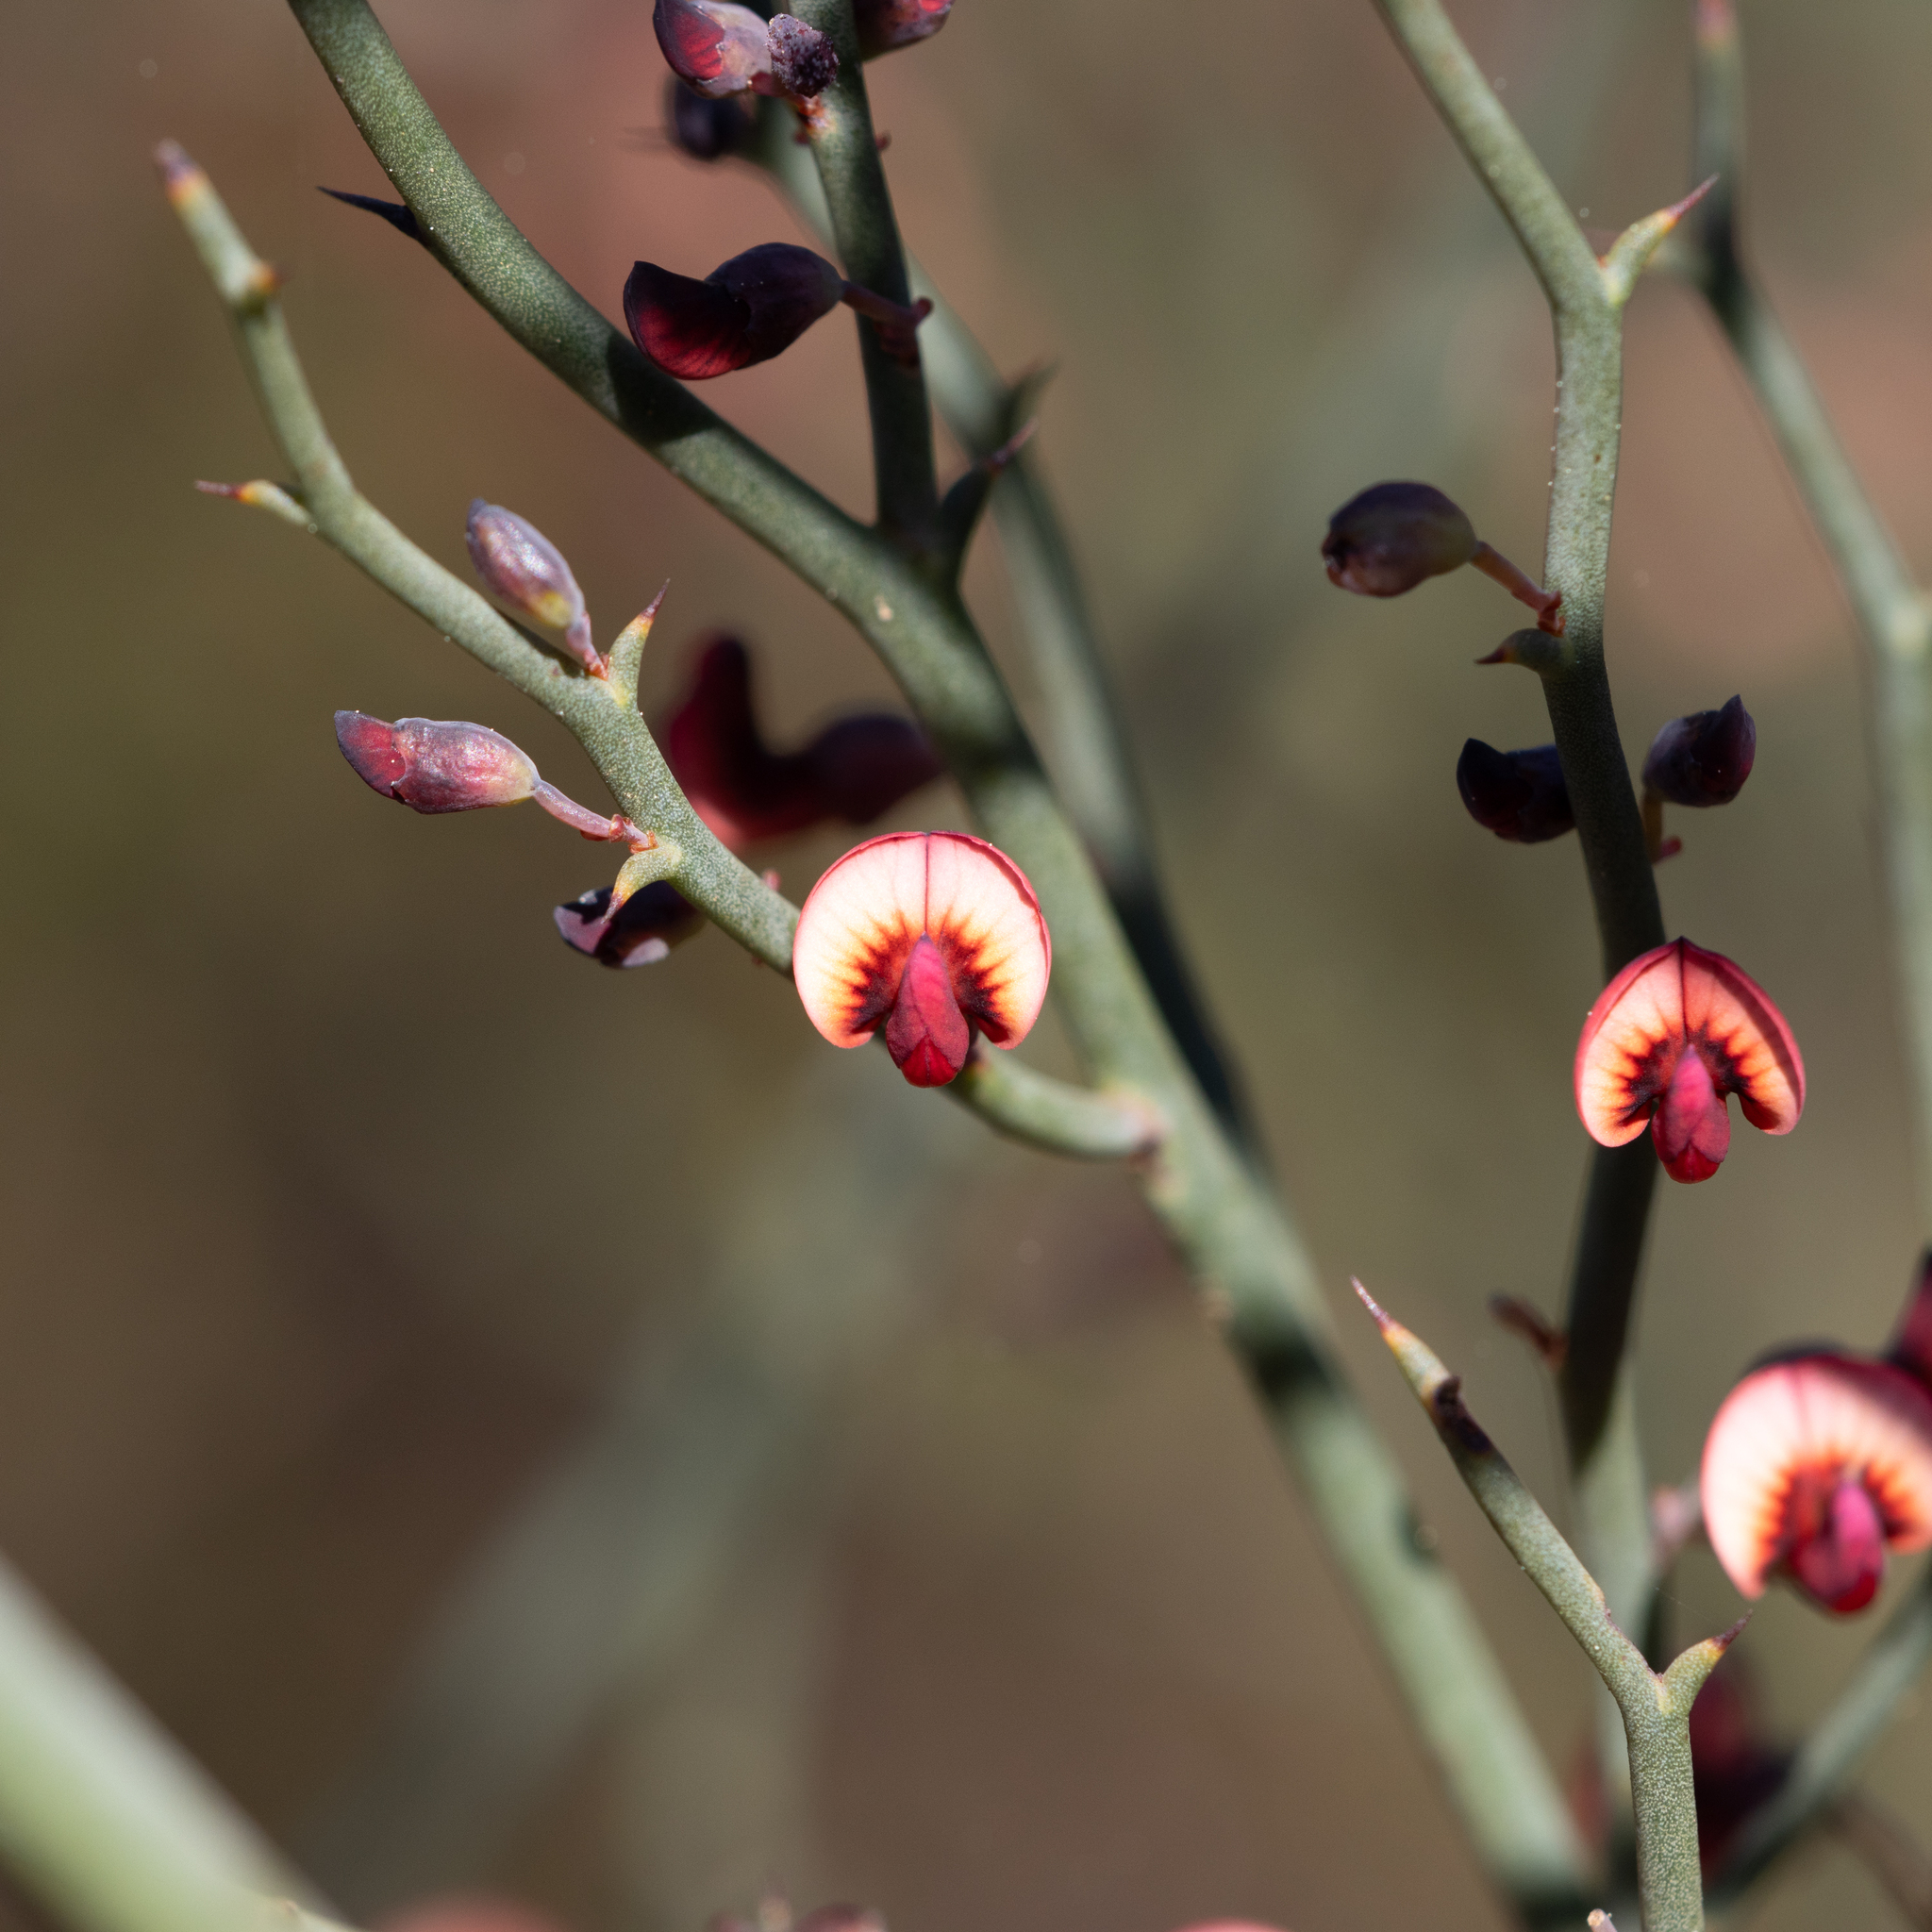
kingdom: Plantae
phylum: Tracheophyta
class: Magnoliopsida
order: Fabales
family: Fabaceae
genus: Daviesia
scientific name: Daviesia brevifolia
